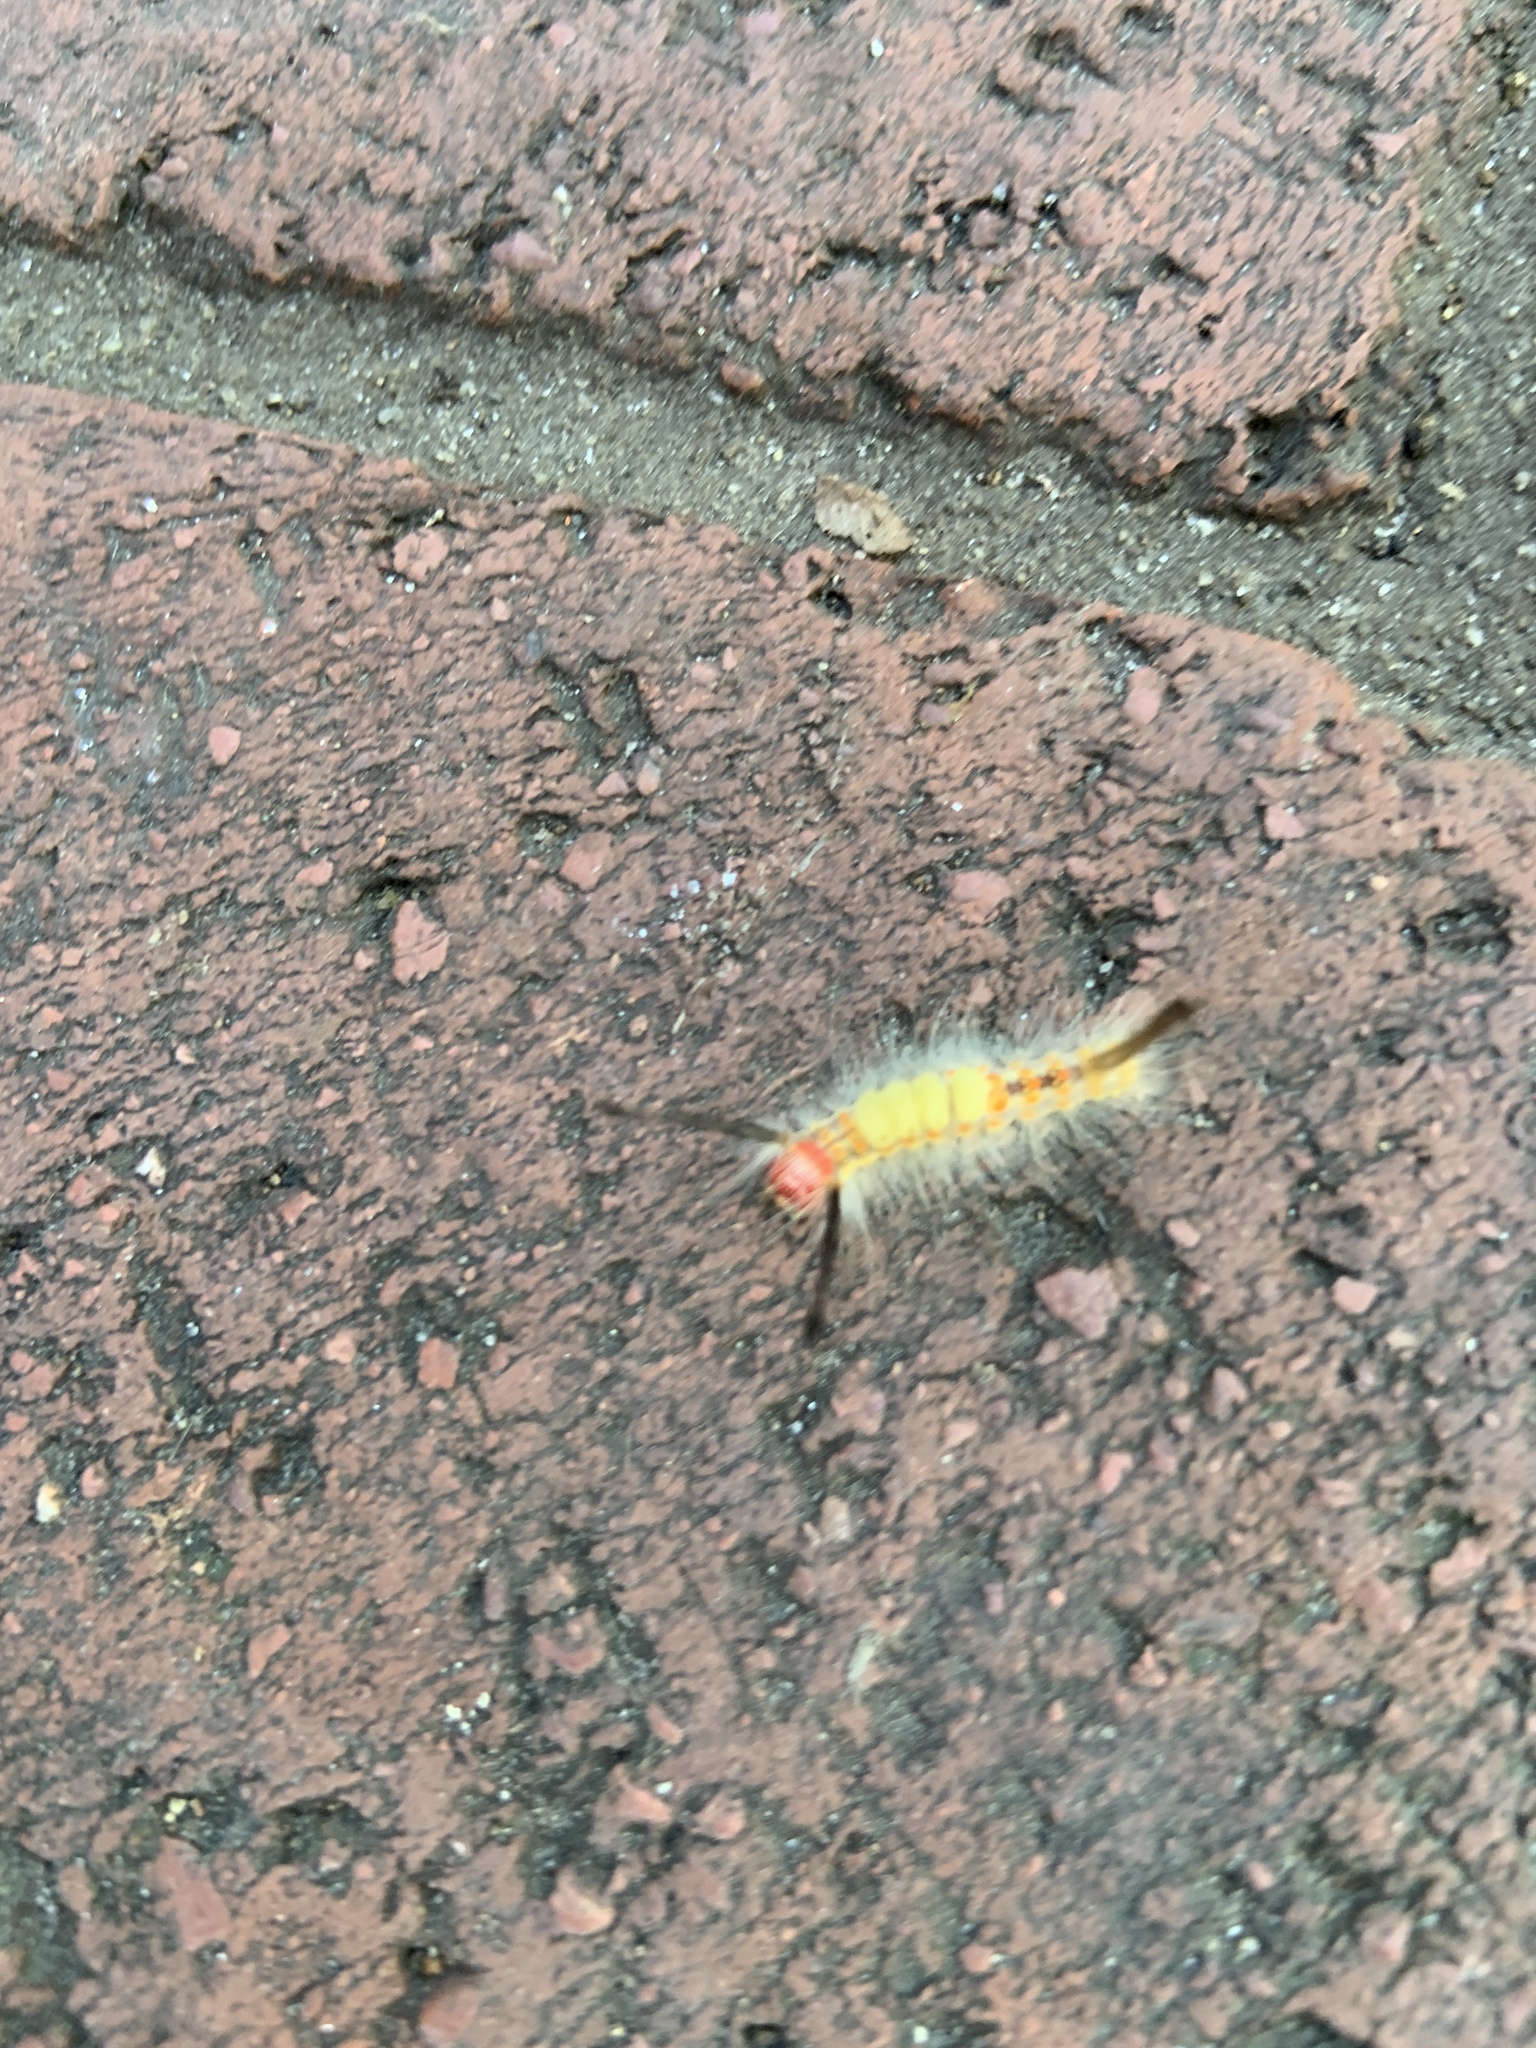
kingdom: Animalia
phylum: Arthropoda
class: Insecta
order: Lepidoptera
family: Erebidae
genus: Orgyia
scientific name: Orgyia detrita
